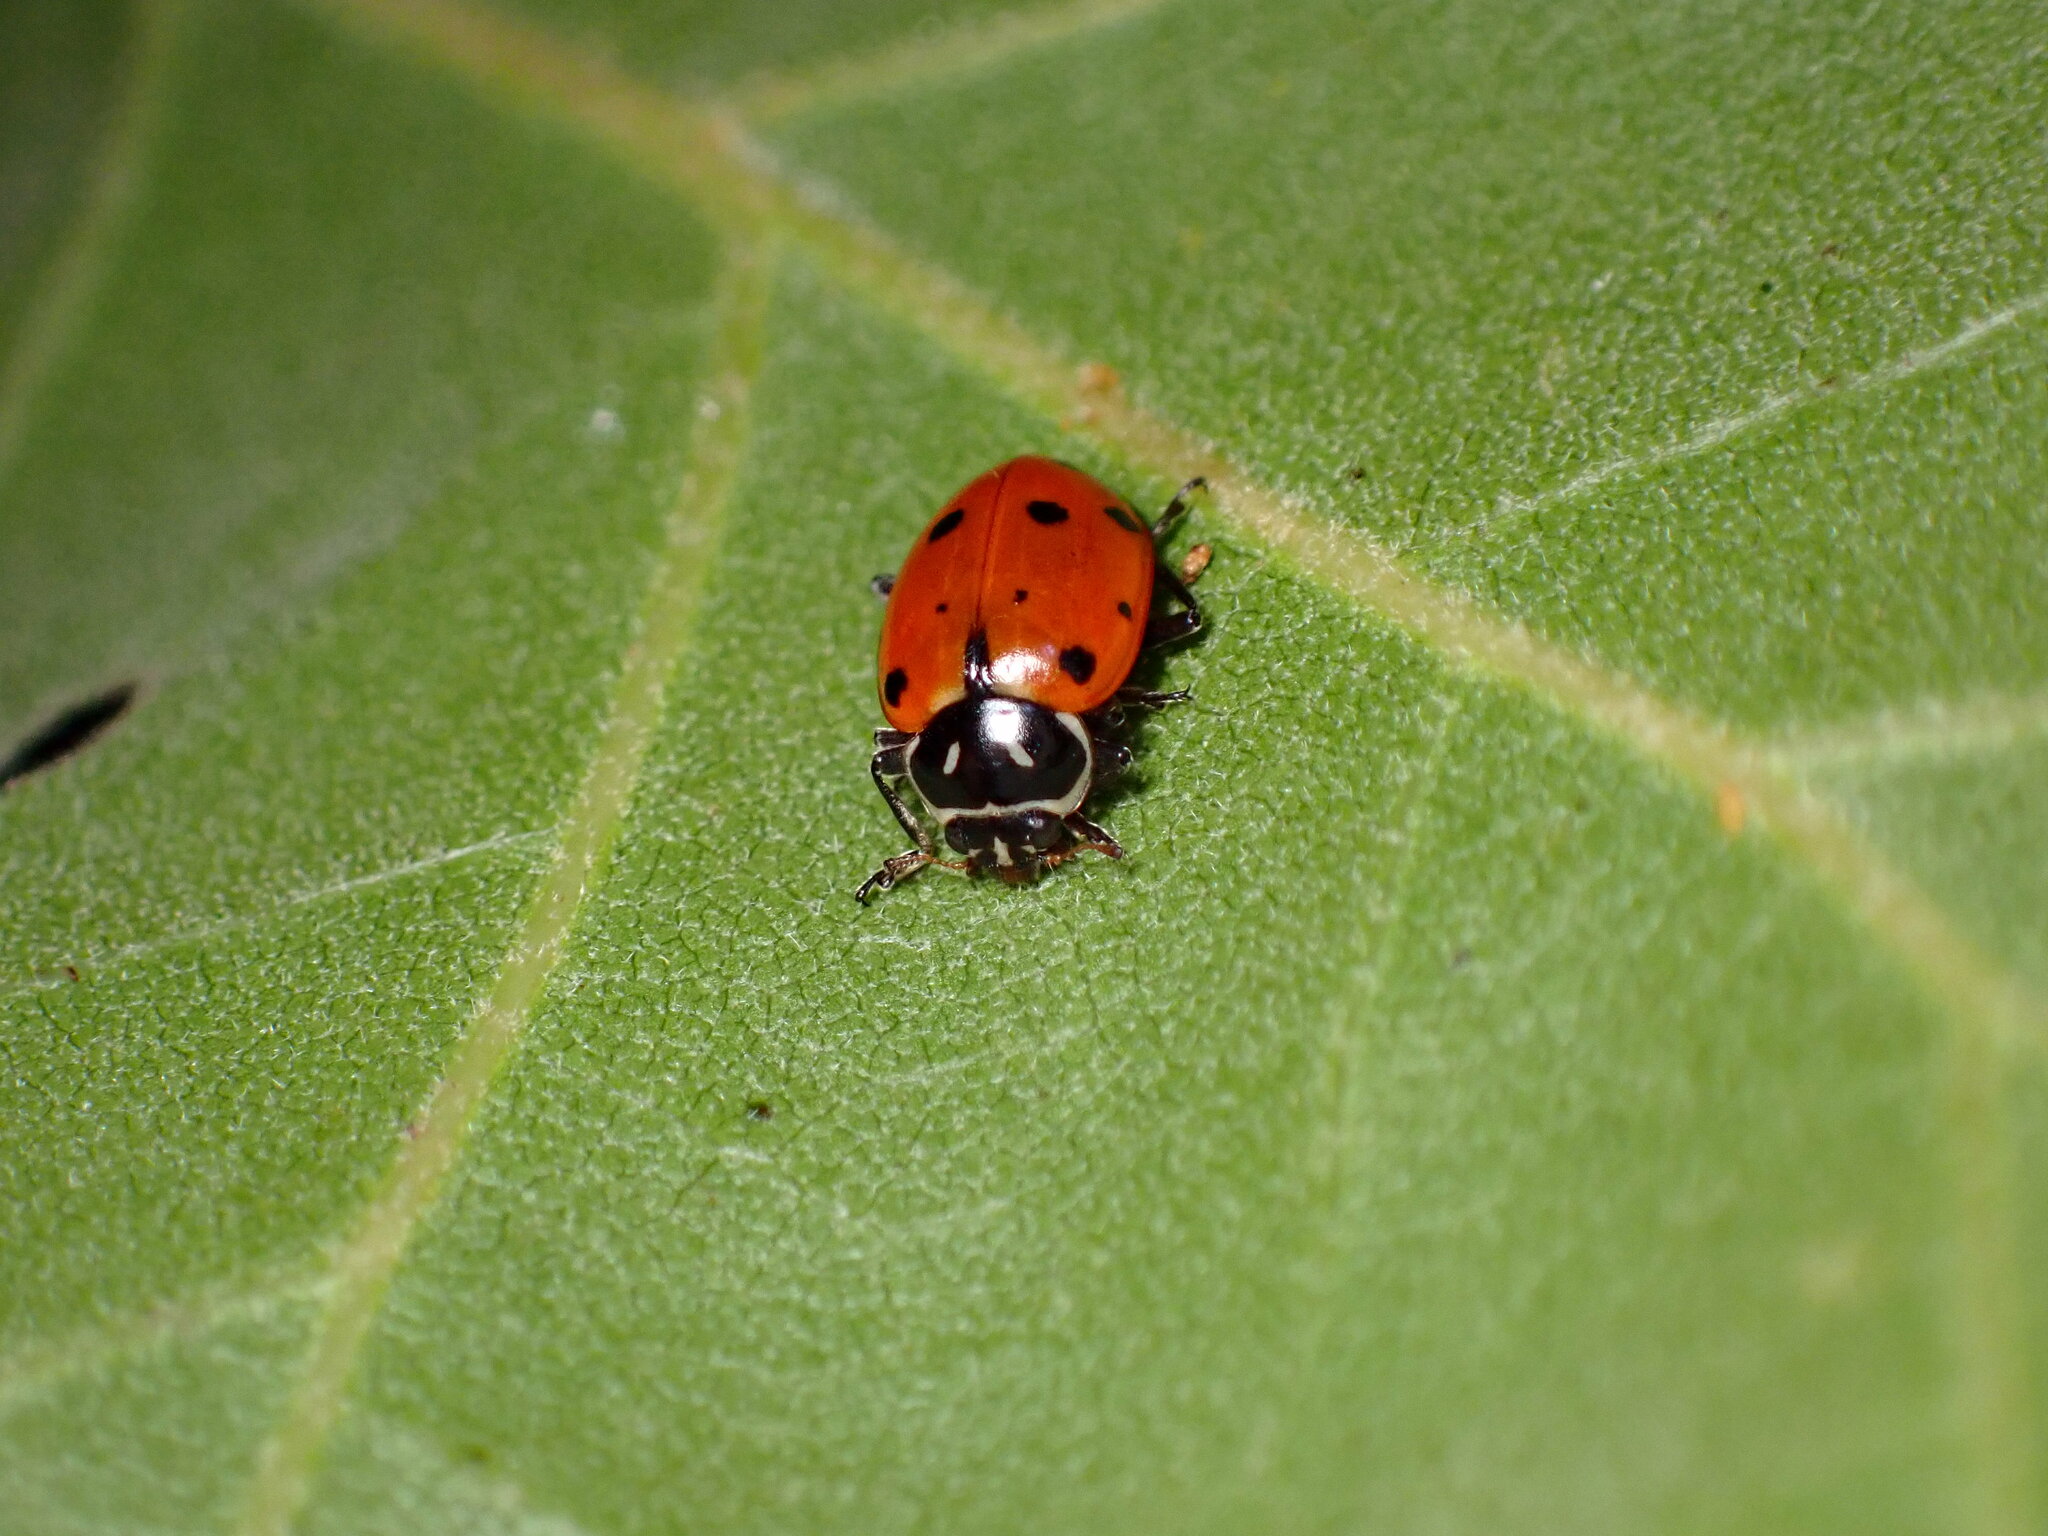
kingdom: Animalia
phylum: Arthropoda
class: Insecta
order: Coleoptera
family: Coccinellidae
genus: Hippodamia
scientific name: Hippodamia convergens
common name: Convergent lady beetle
